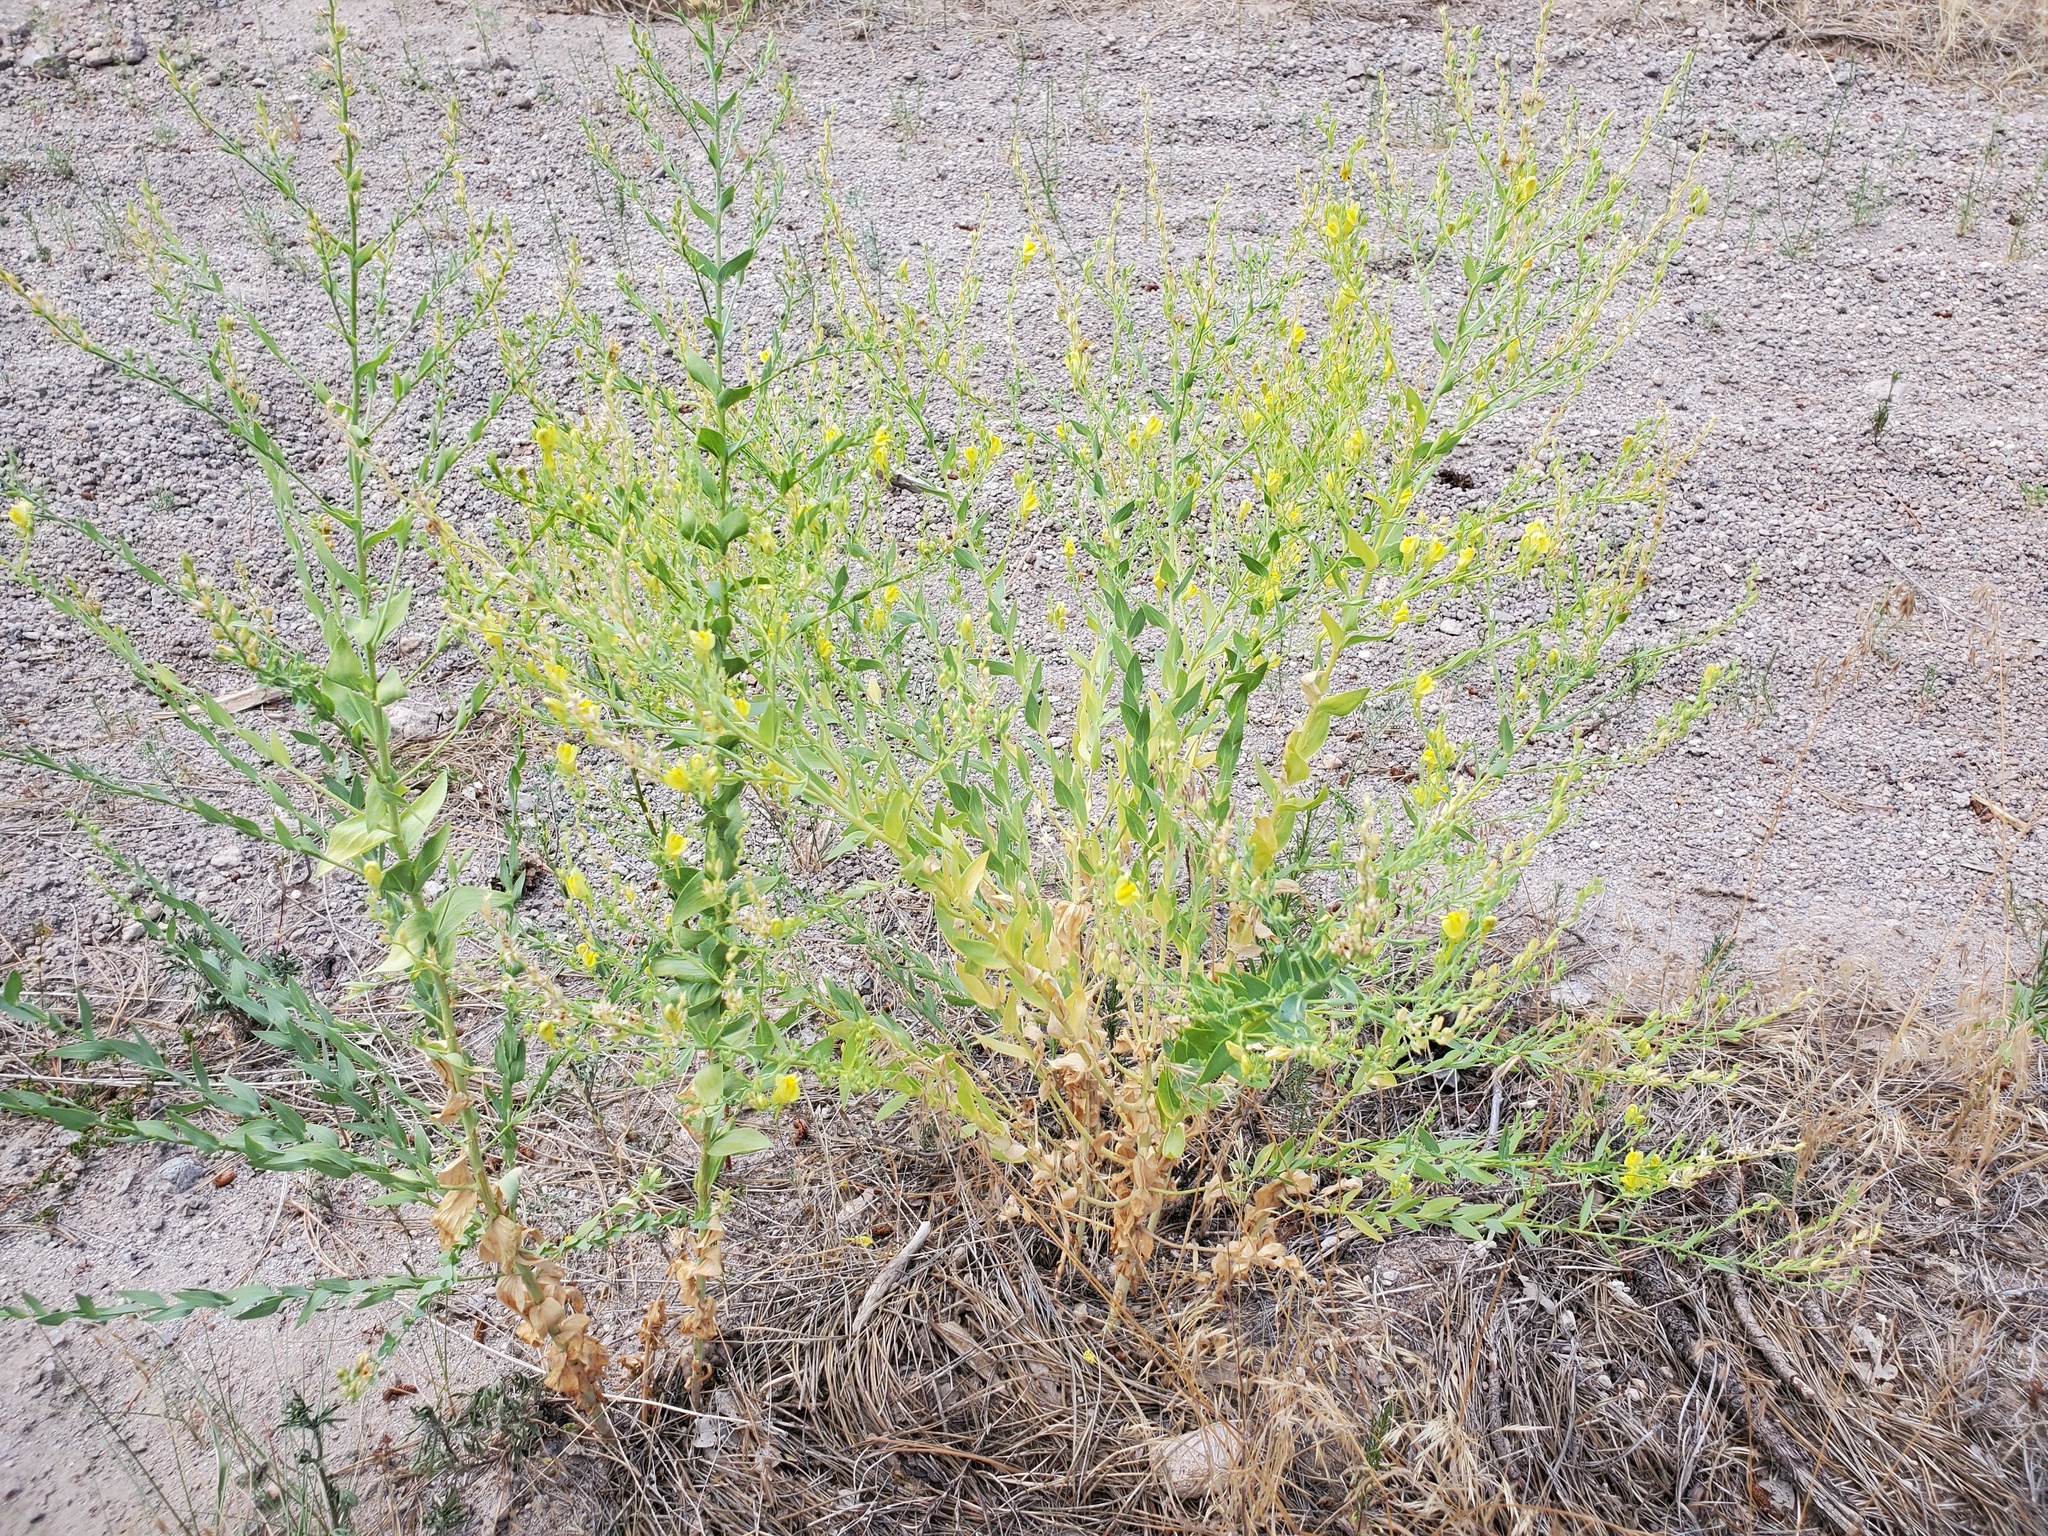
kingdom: Plantae
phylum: Tracheophyta
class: Magnoliopsida
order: Lamiales
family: Plantaginaceae
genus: Linaria
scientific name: Linaria dalmatica
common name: Dalmatian toadflax
